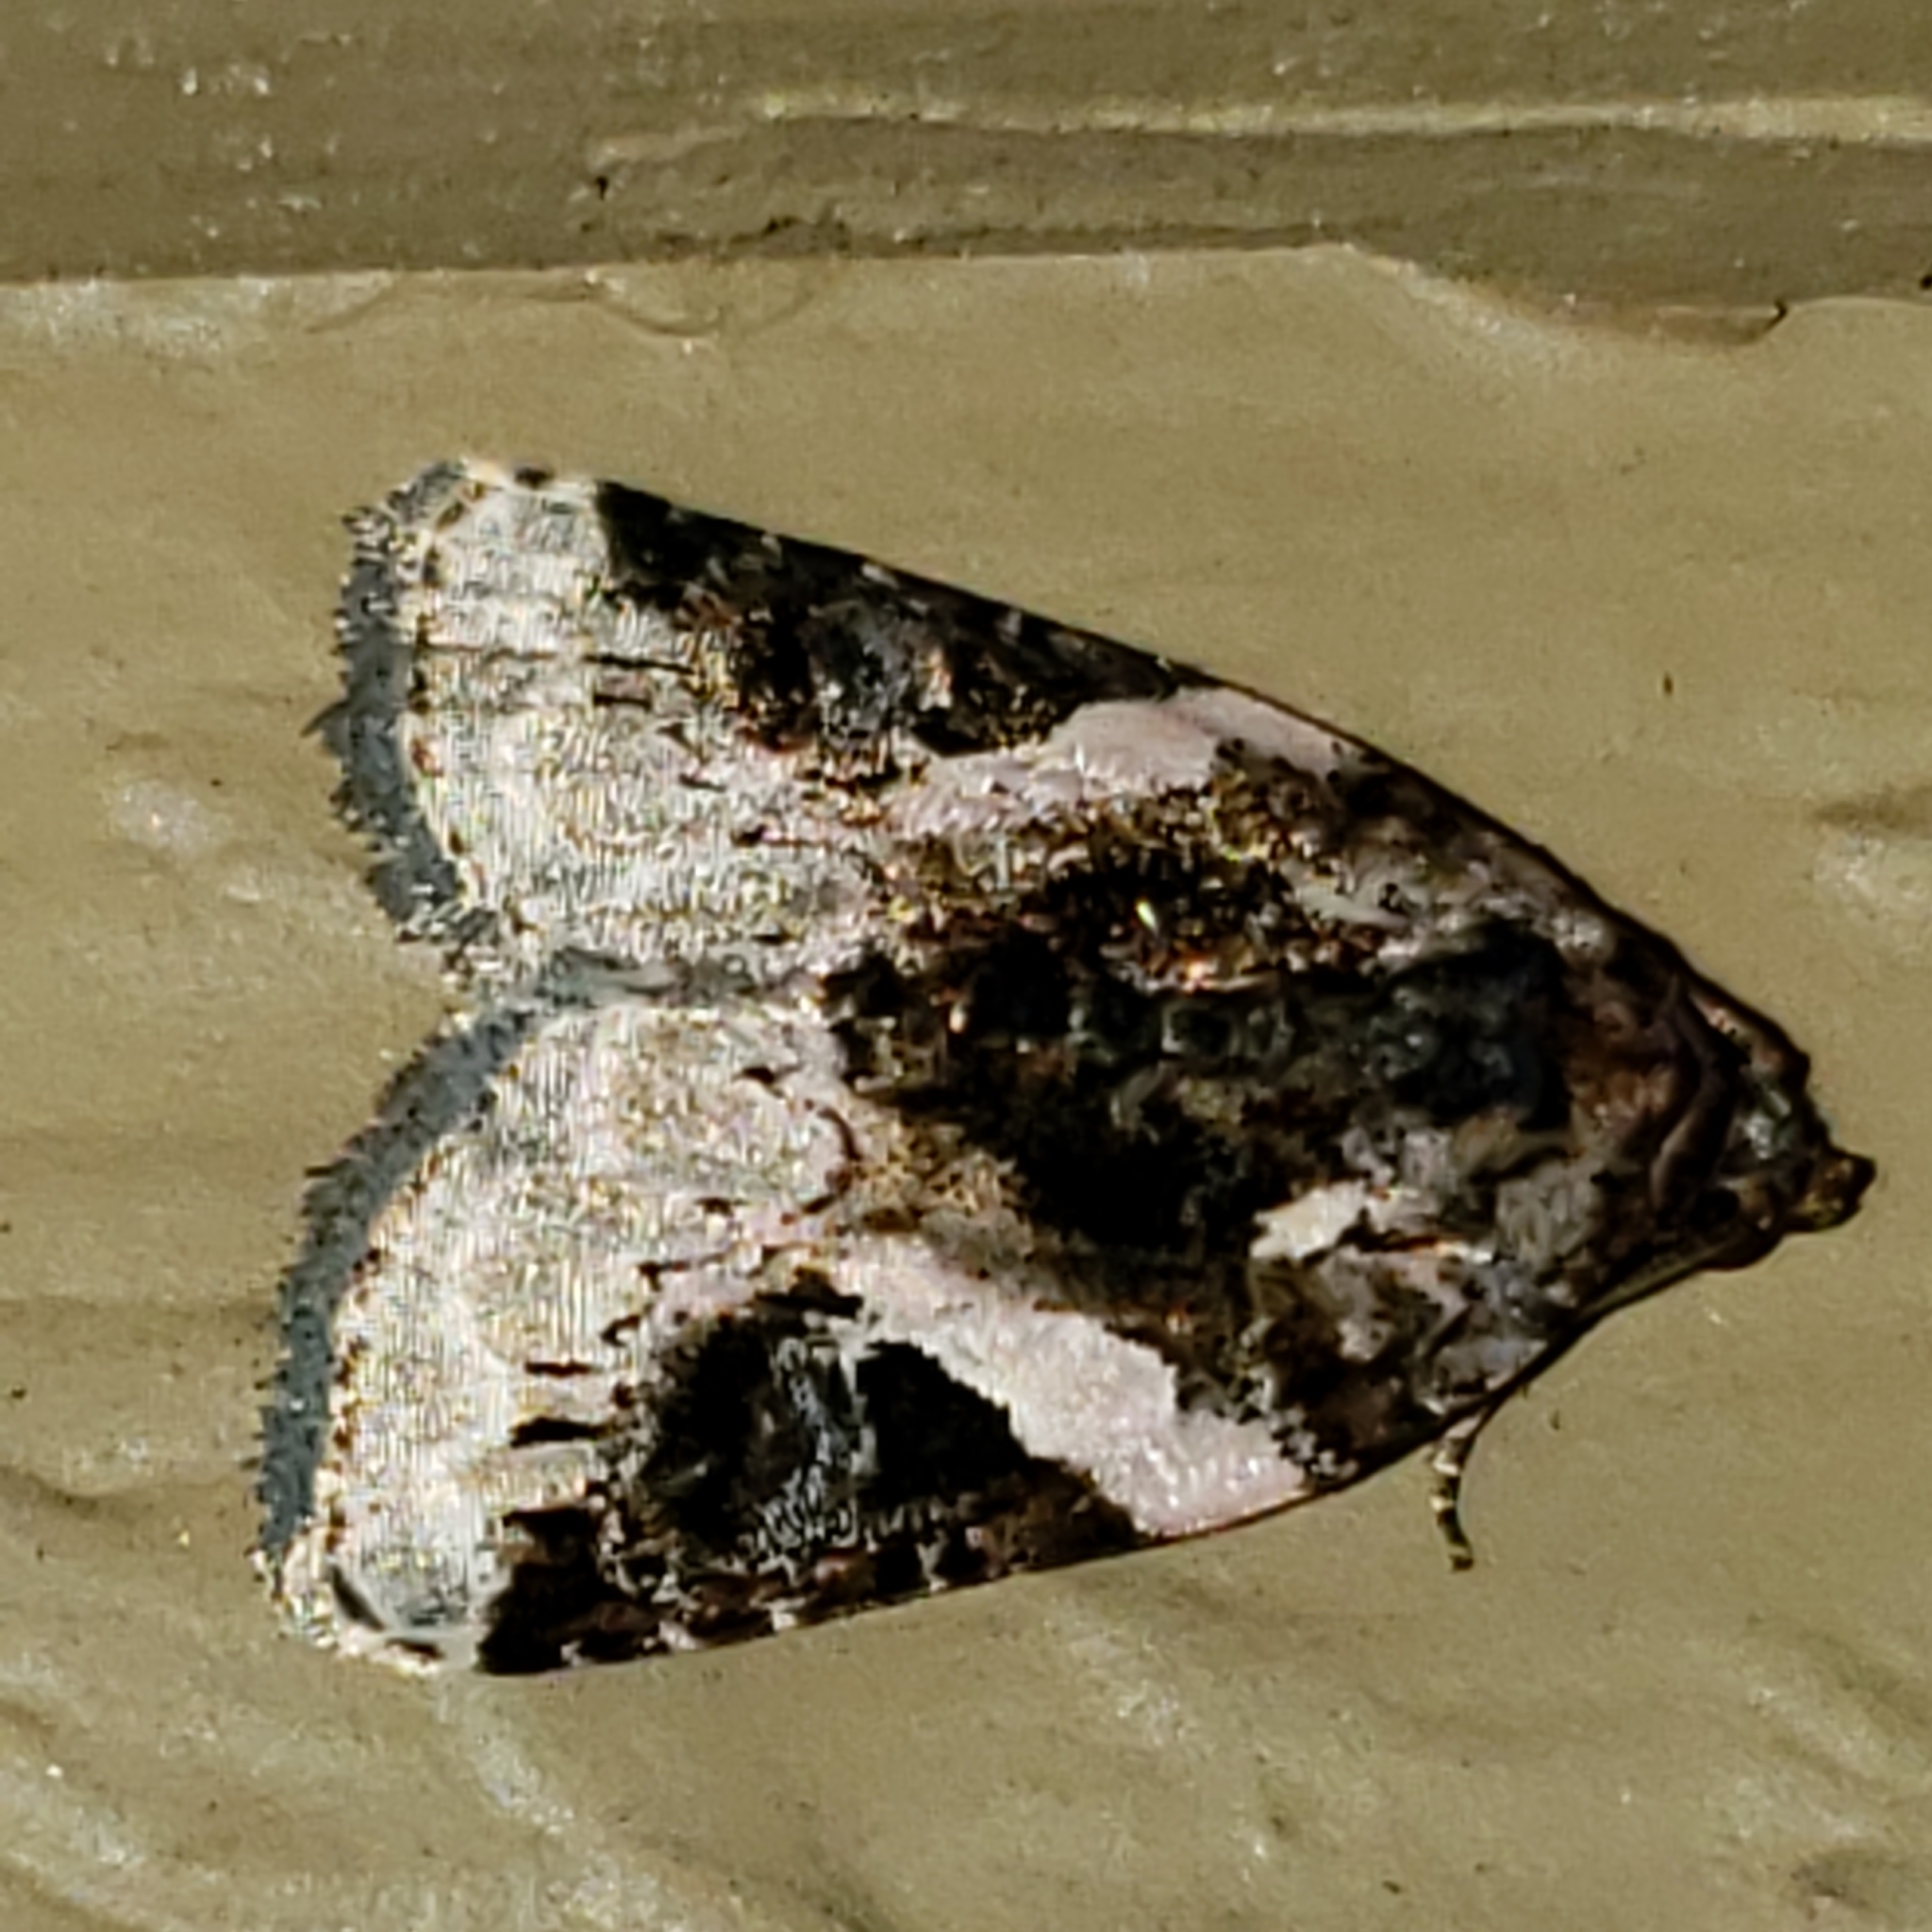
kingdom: Animalia
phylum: Arthropoda
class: Insecta
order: Lepidoptera
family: Noctuidae
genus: Pseudeustrotia
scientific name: Pseudeustrotia carneola
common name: Pink-barred lithacodia moth
